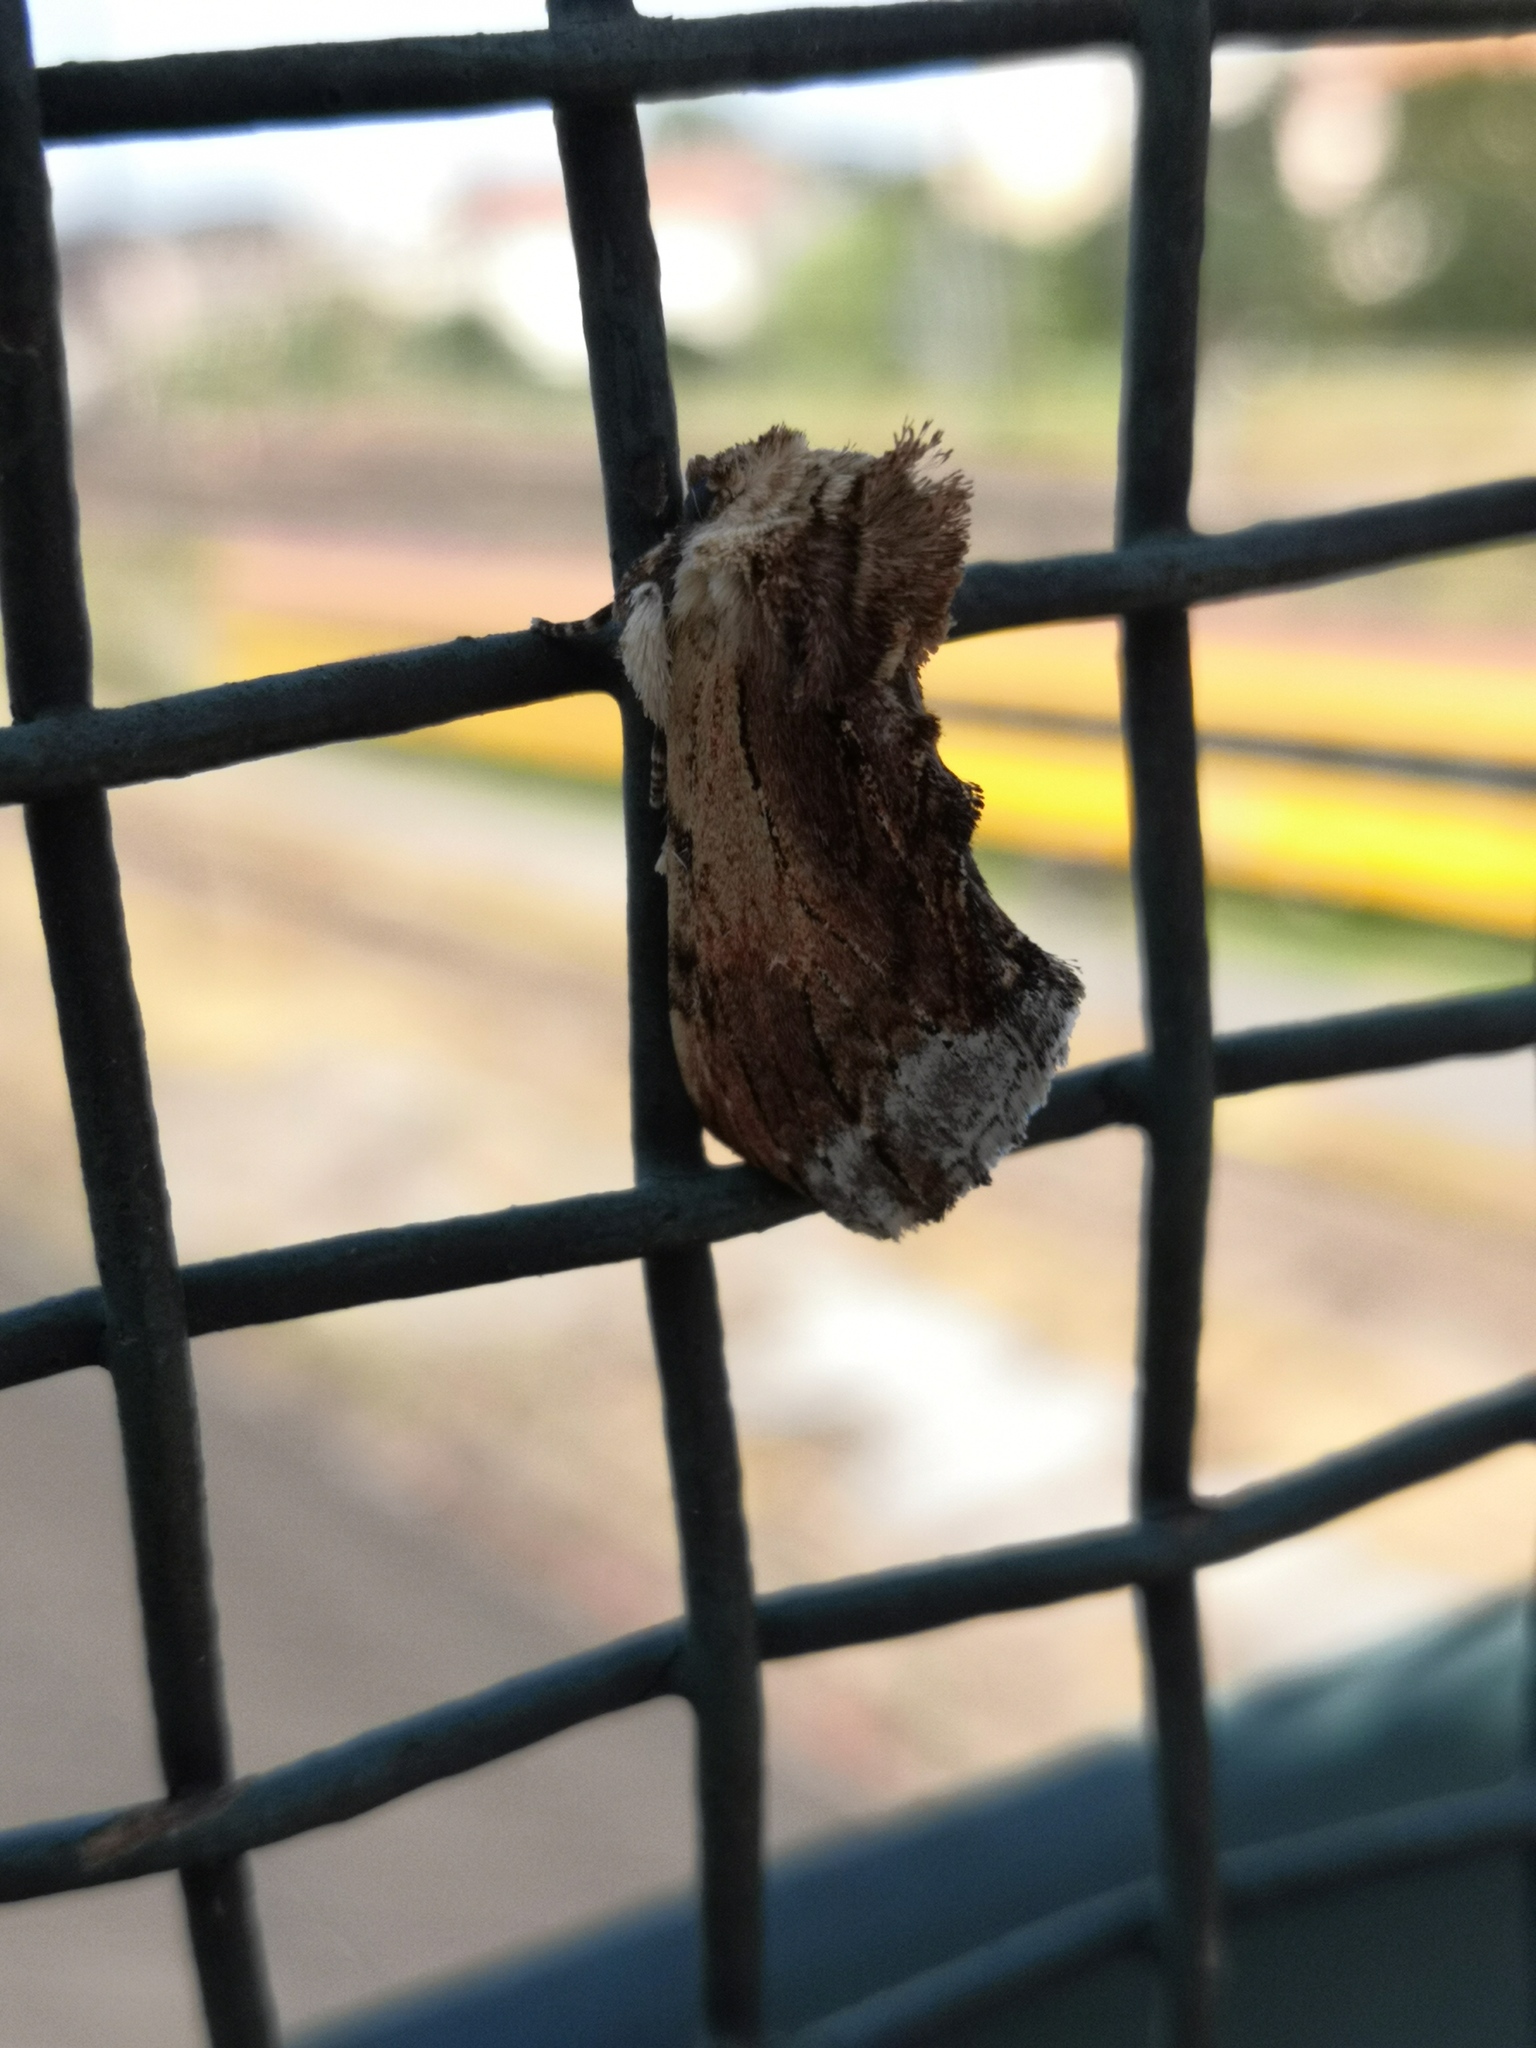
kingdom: Animalia
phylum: Arthropoda
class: Insecta
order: Lepidoptera
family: Notodontidae
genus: Ptilodon
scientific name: Ptilodon cucullina
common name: Maple prominent
